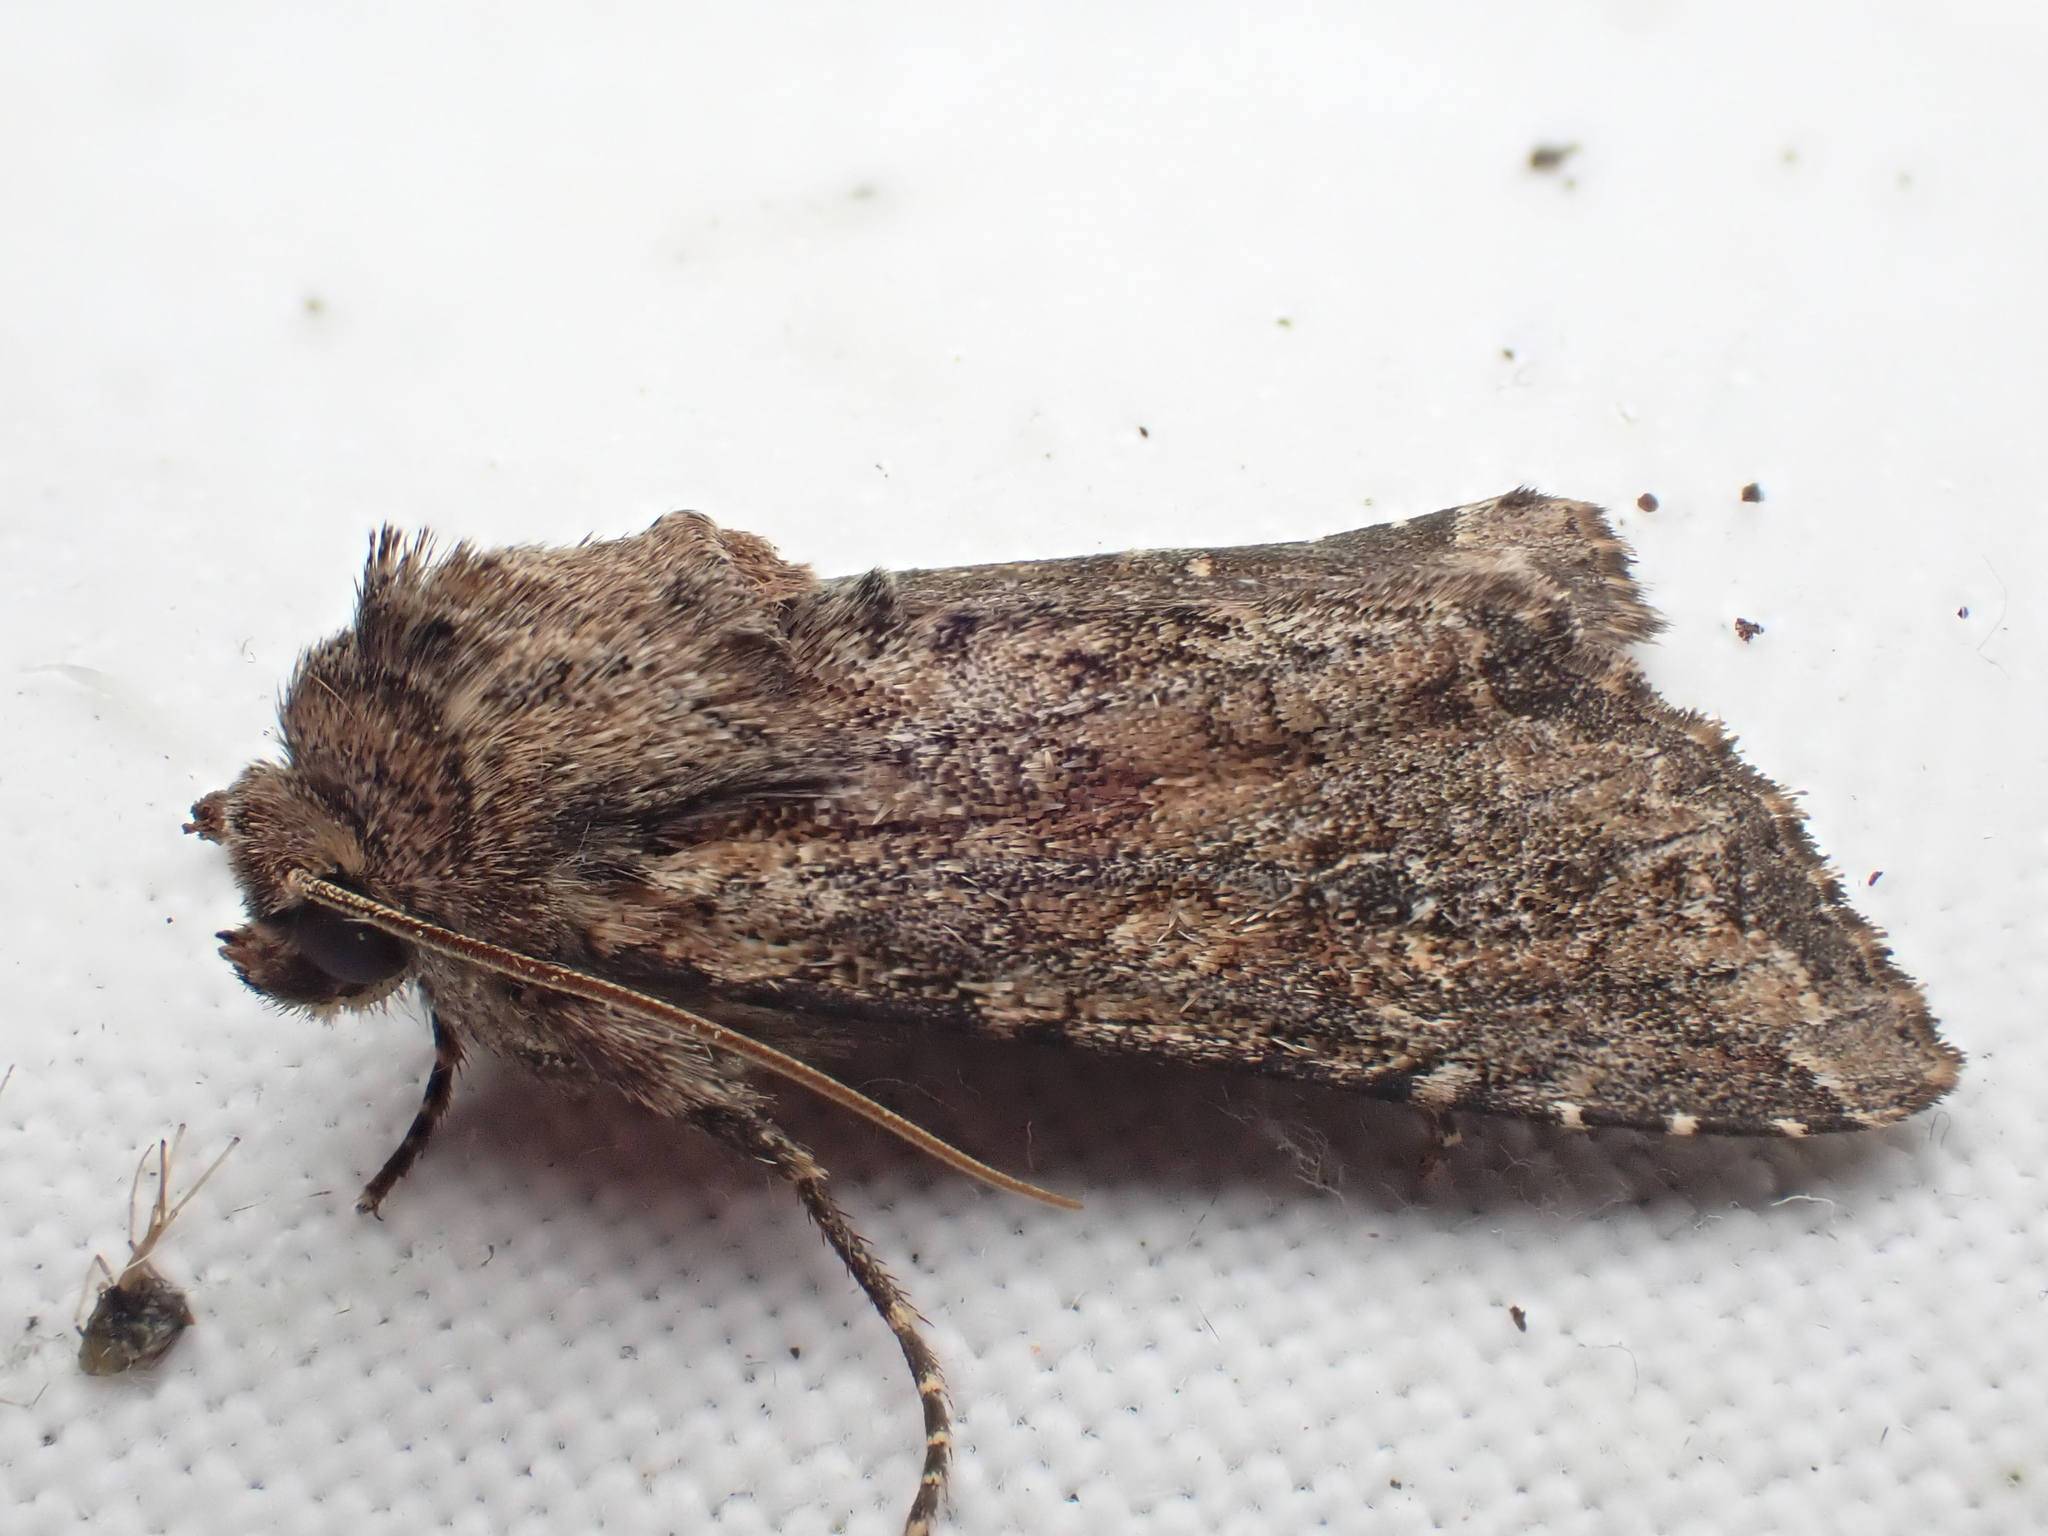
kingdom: Animalia
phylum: Arthropoda
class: Insecta
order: Lepidoptera
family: Noctuidae
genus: Apamea
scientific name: Apamea anceps
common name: Large nutmeg
